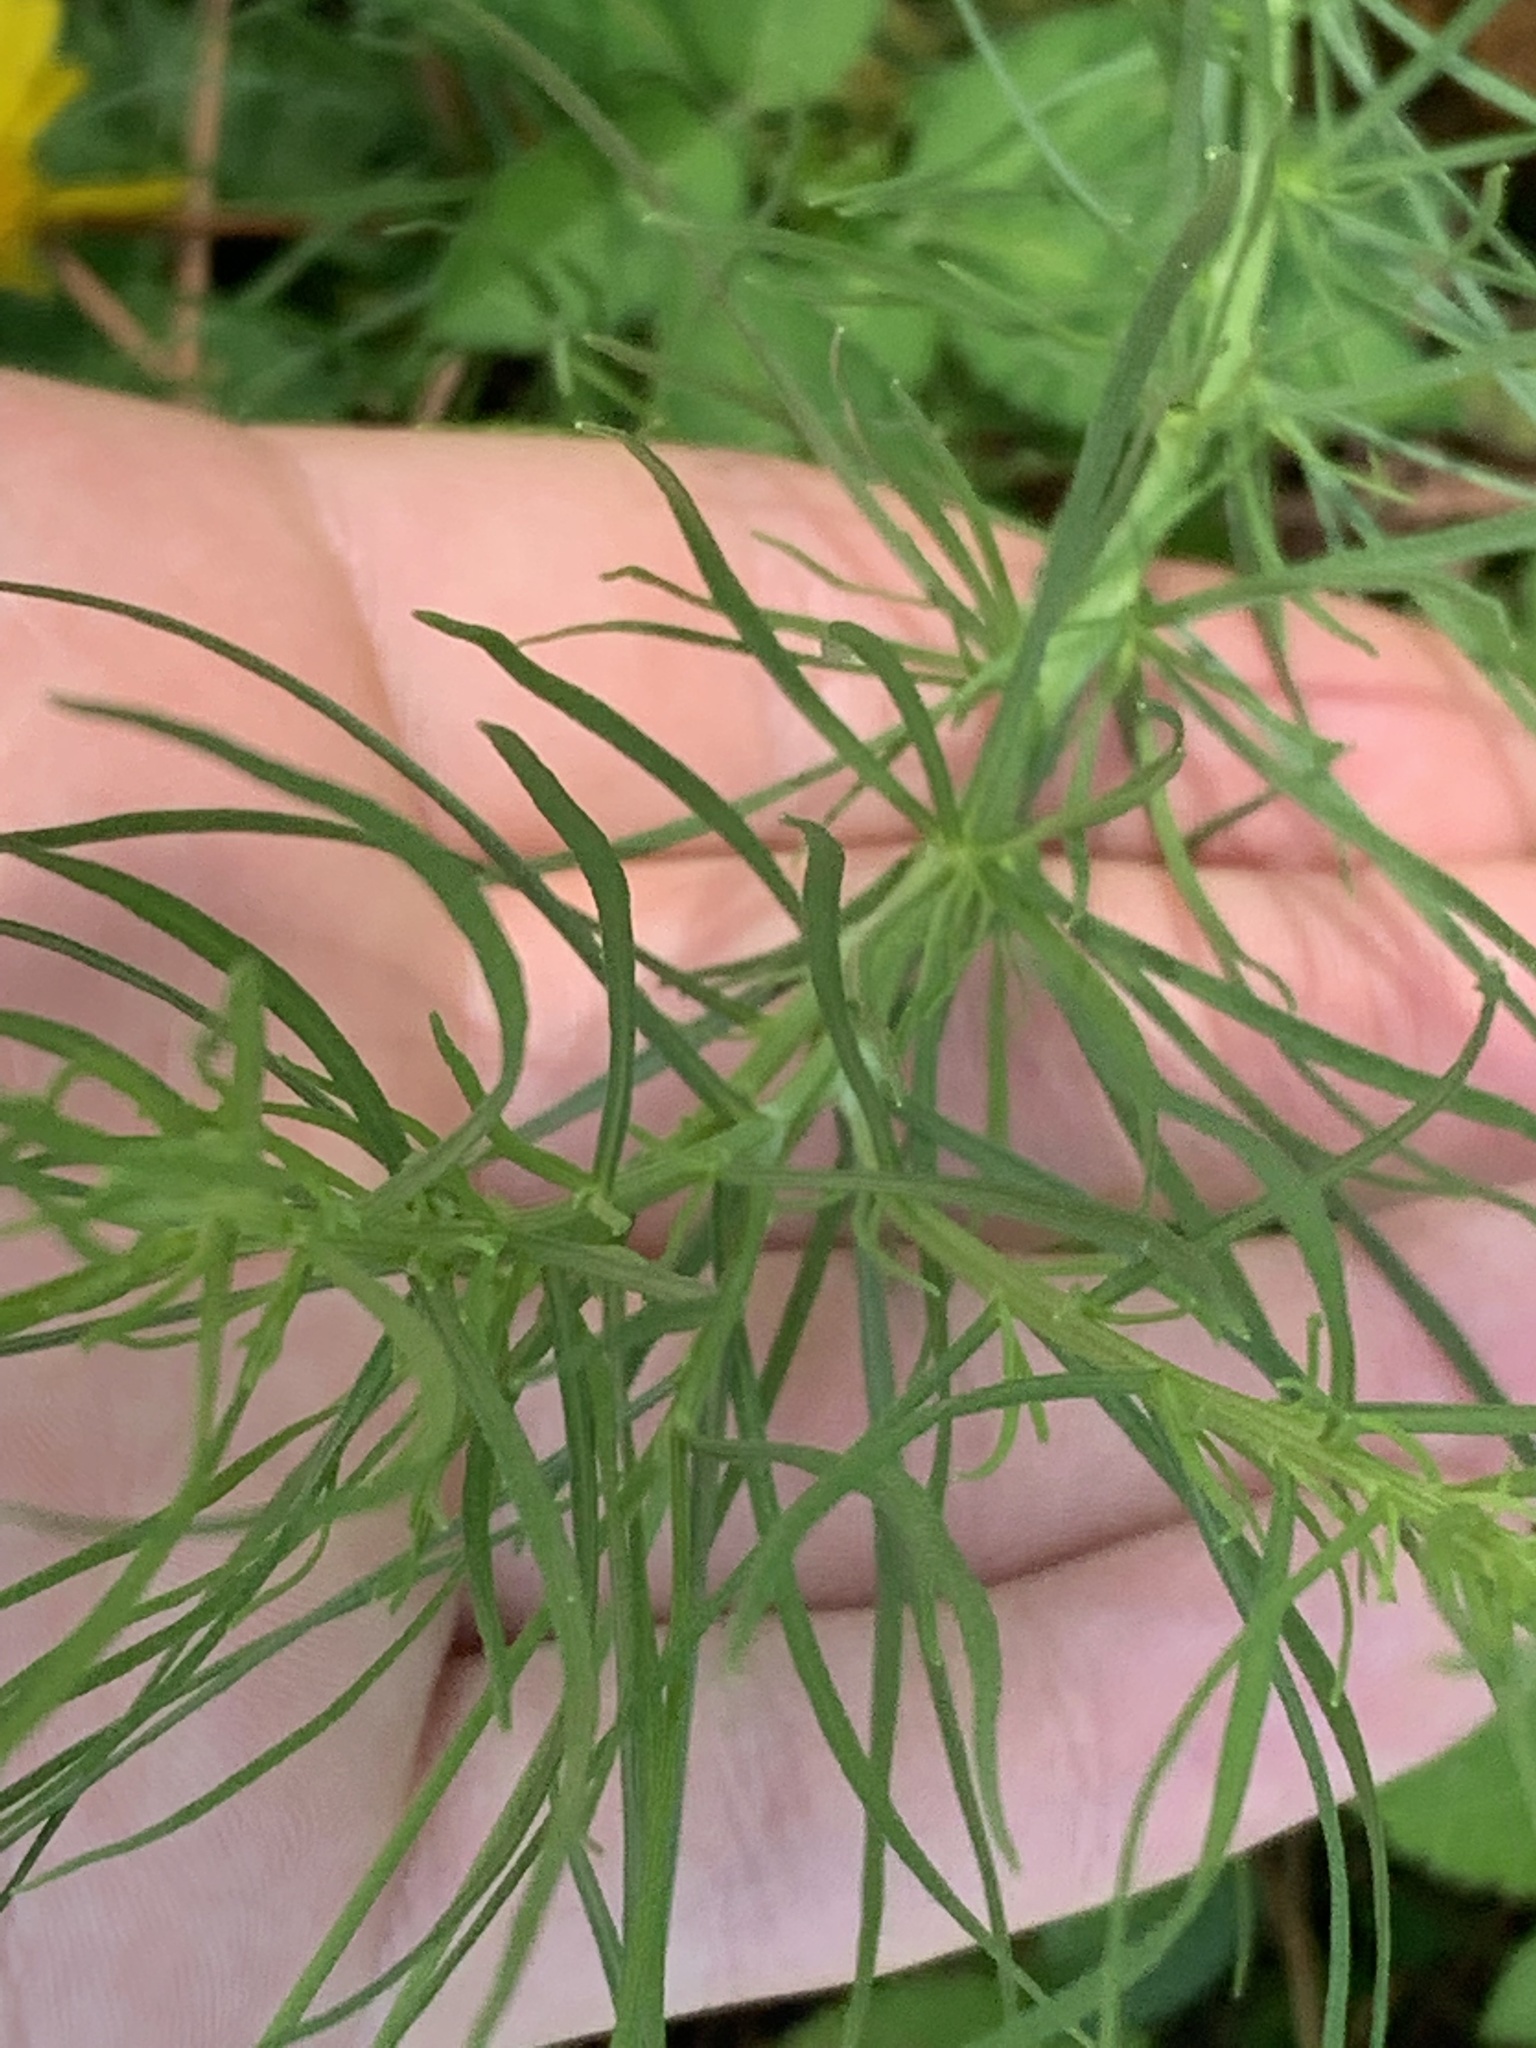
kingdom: Plantae
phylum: Tracheophyta
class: Magnoliopsida
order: Asterales
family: Asteraceae
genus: Helenium
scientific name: Helenium amarum
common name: Bitter sneezeweed
